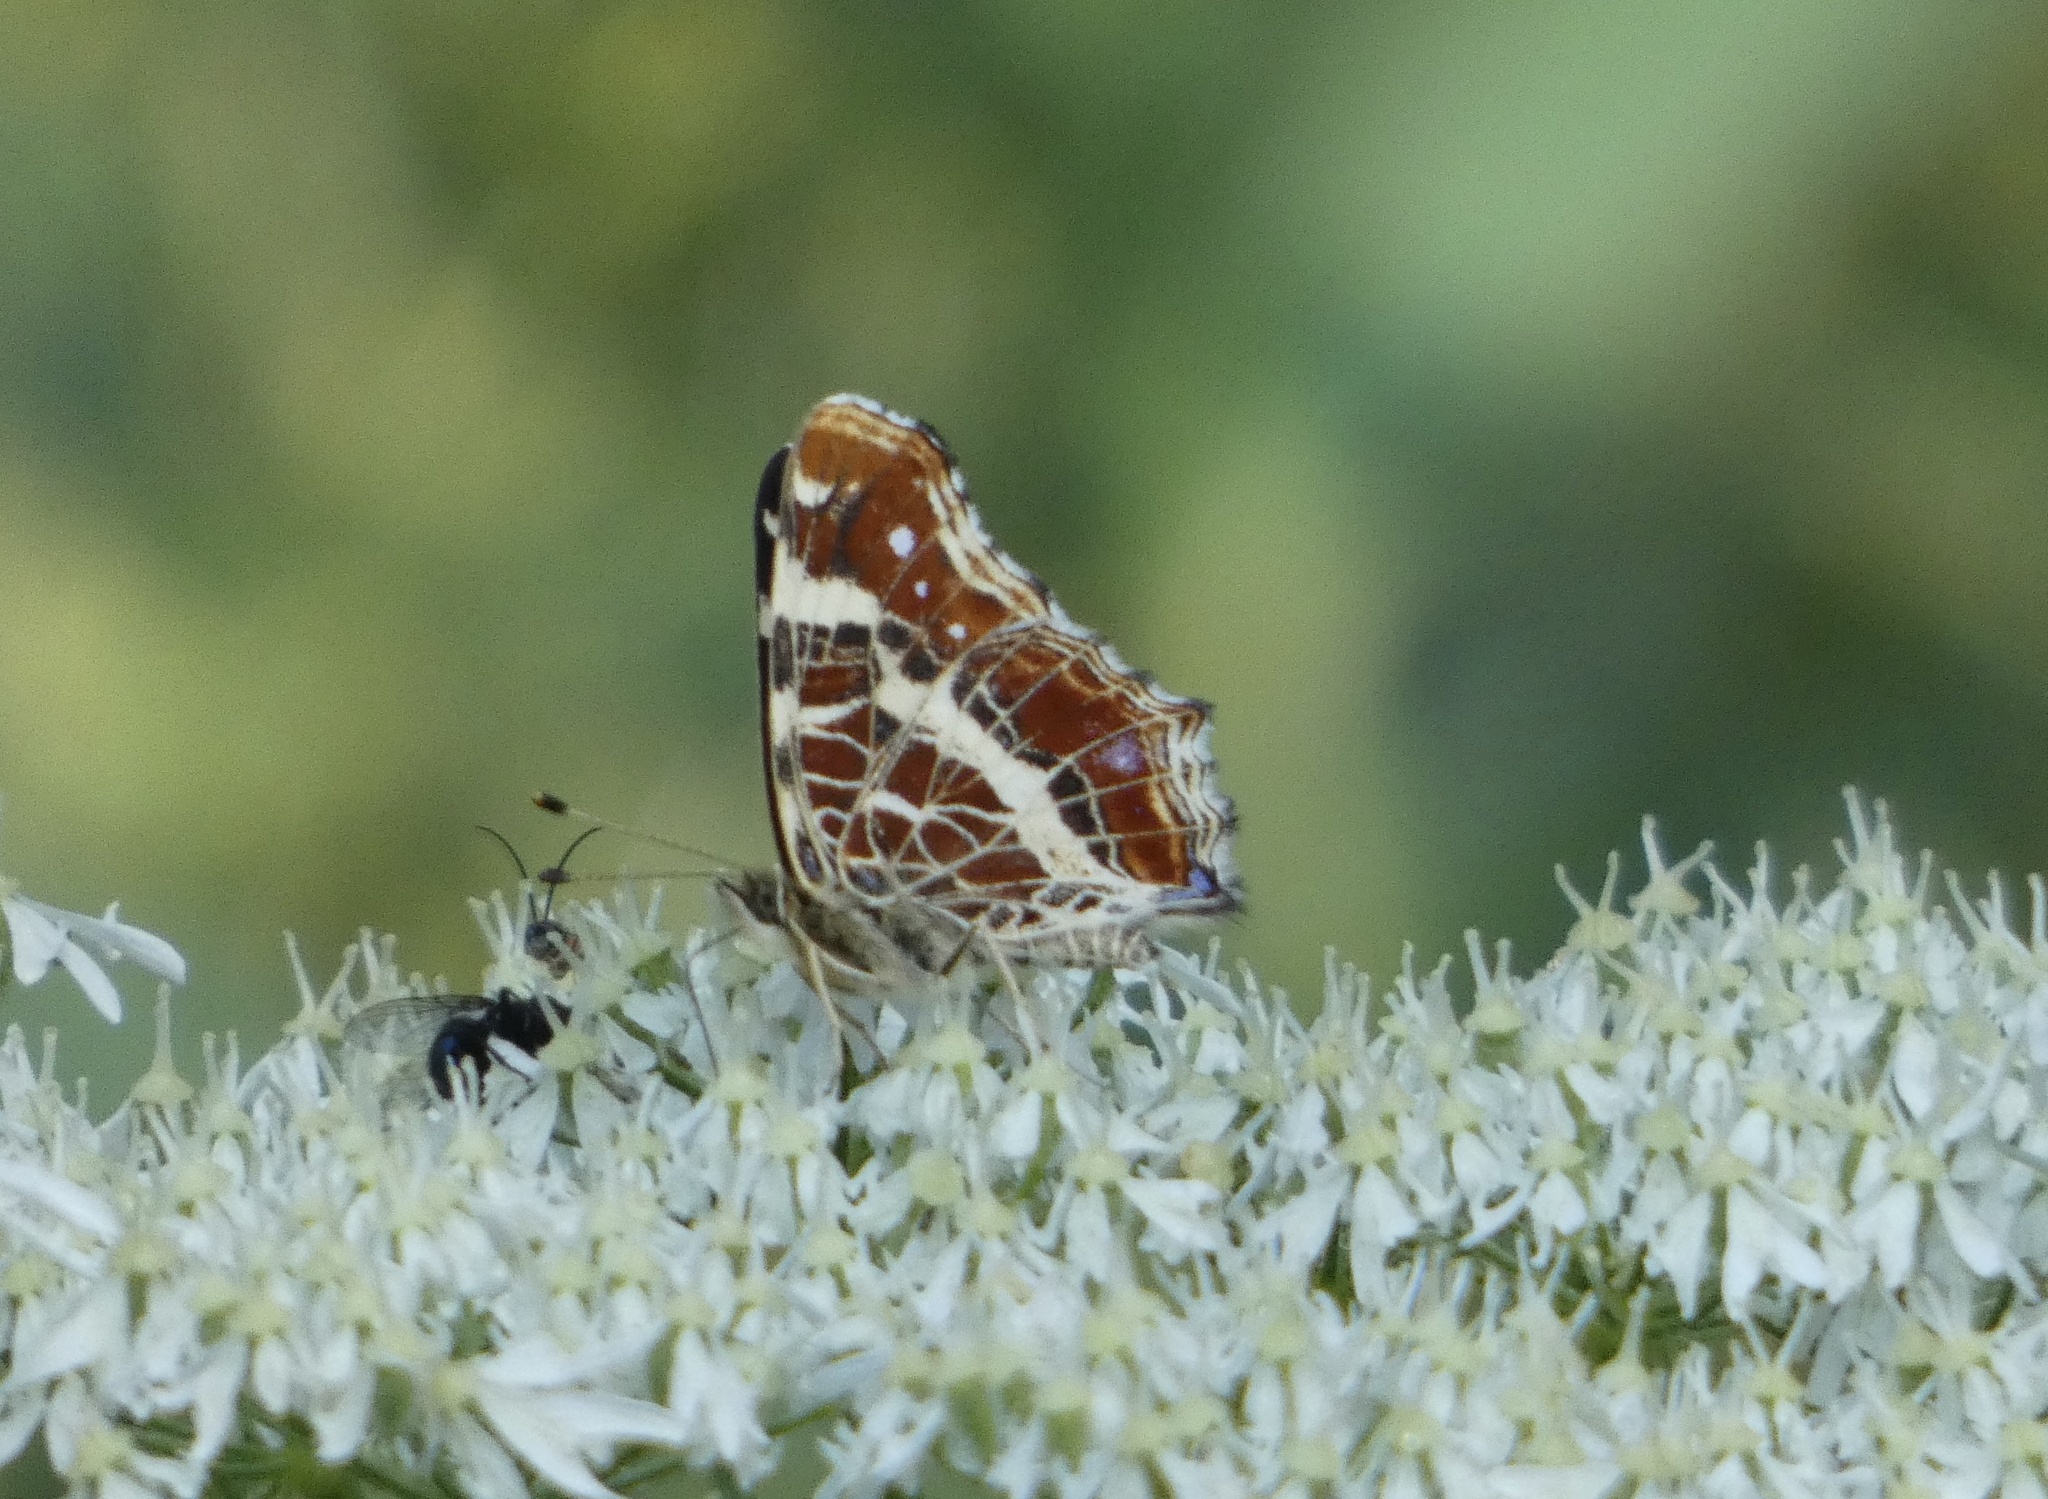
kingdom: Animalia
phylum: Arthropoda
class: Insecta
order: Lepidoptera
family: Nymphalidae
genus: Araschnia
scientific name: Araschnia levana
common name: Map butterfly
